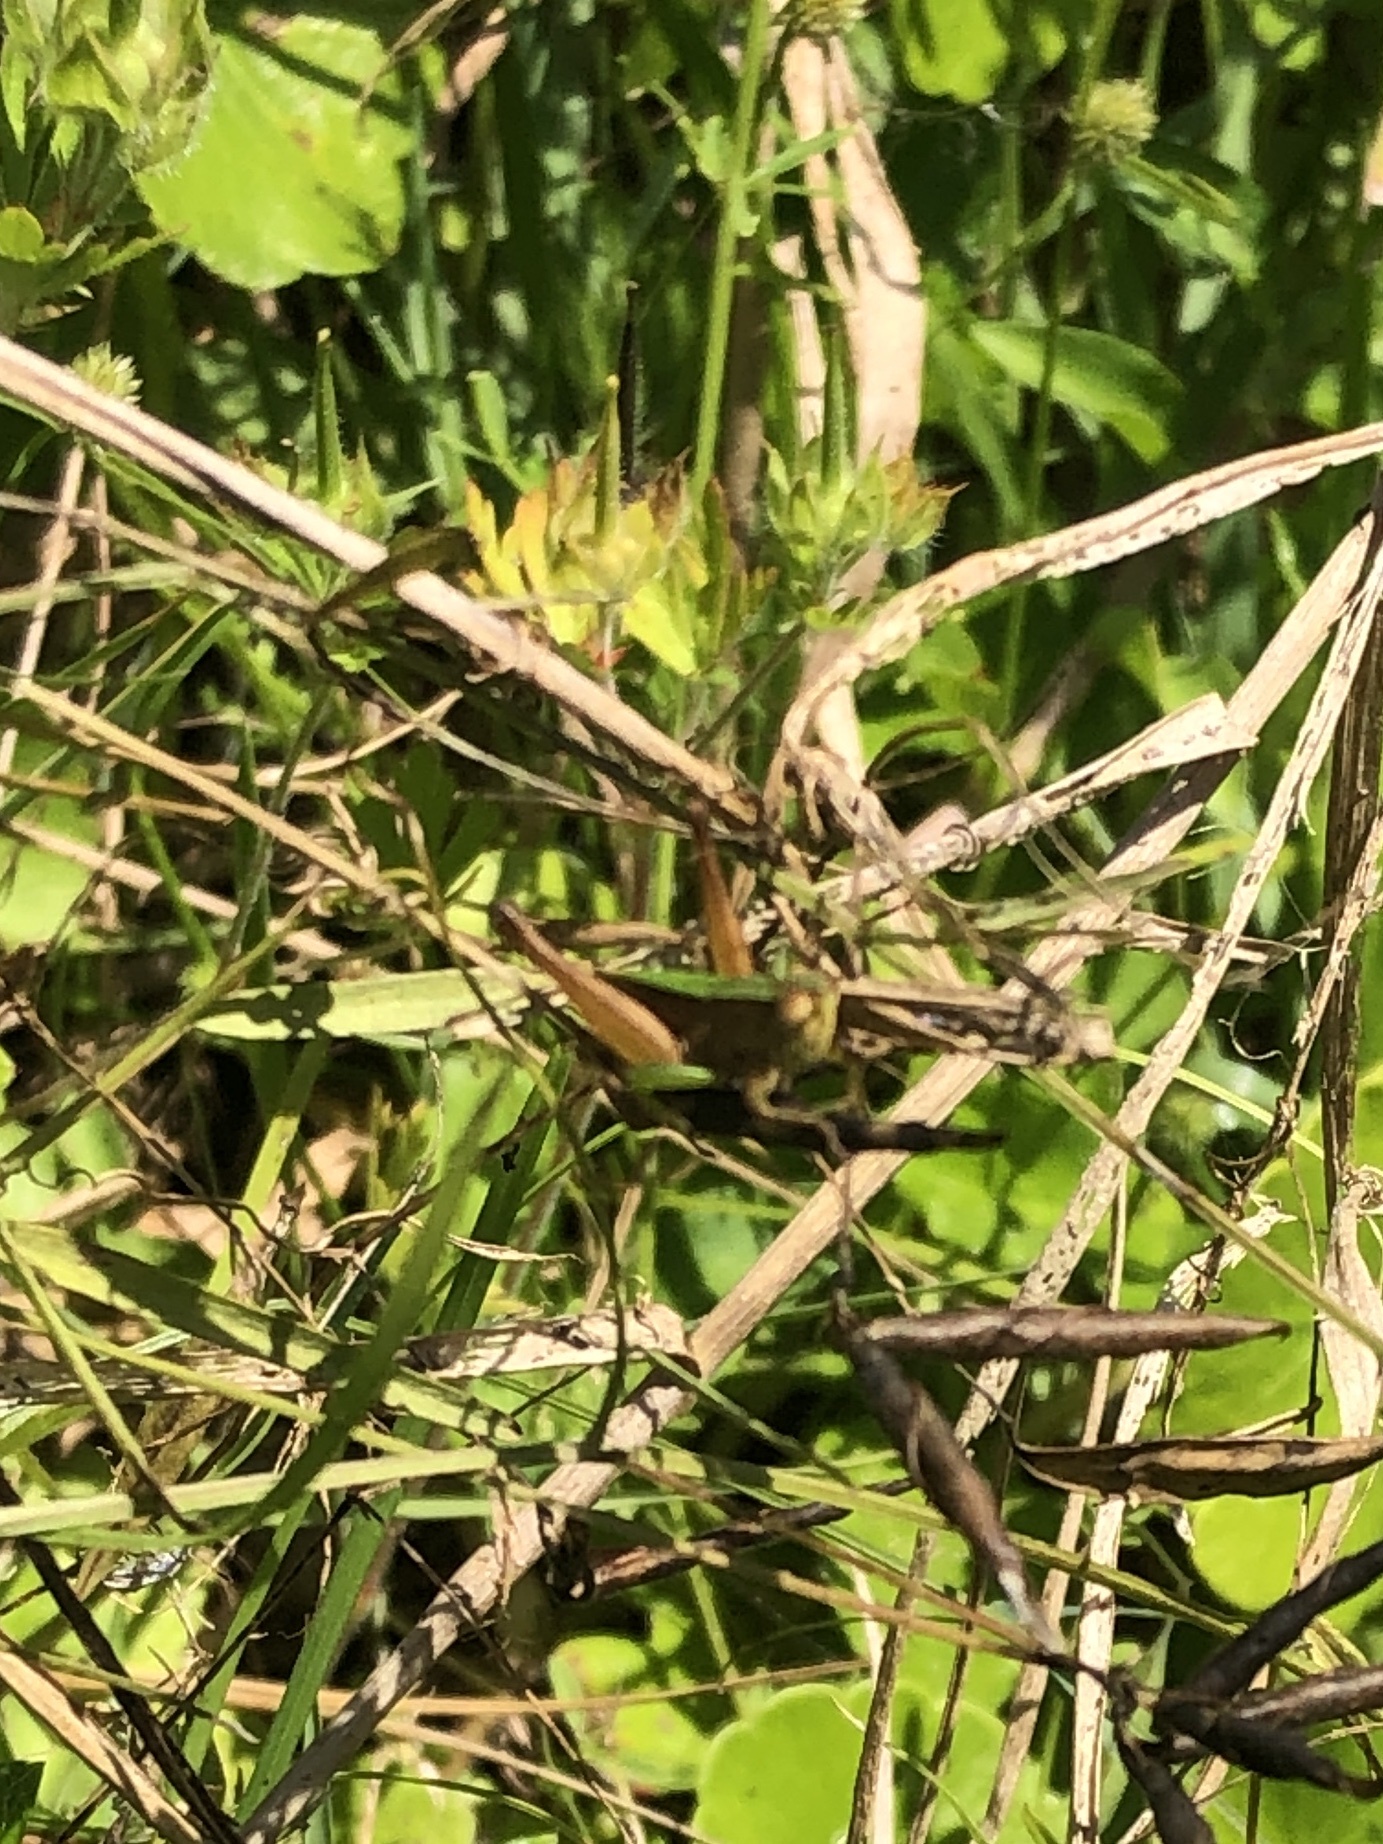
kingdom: Animalia
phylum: Arthropoda
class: Insecta
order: Orthoptera
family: Acrididae
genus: Dichromorpha
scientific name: Dichromorpha viridis
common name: Short-winged green grasshopper
